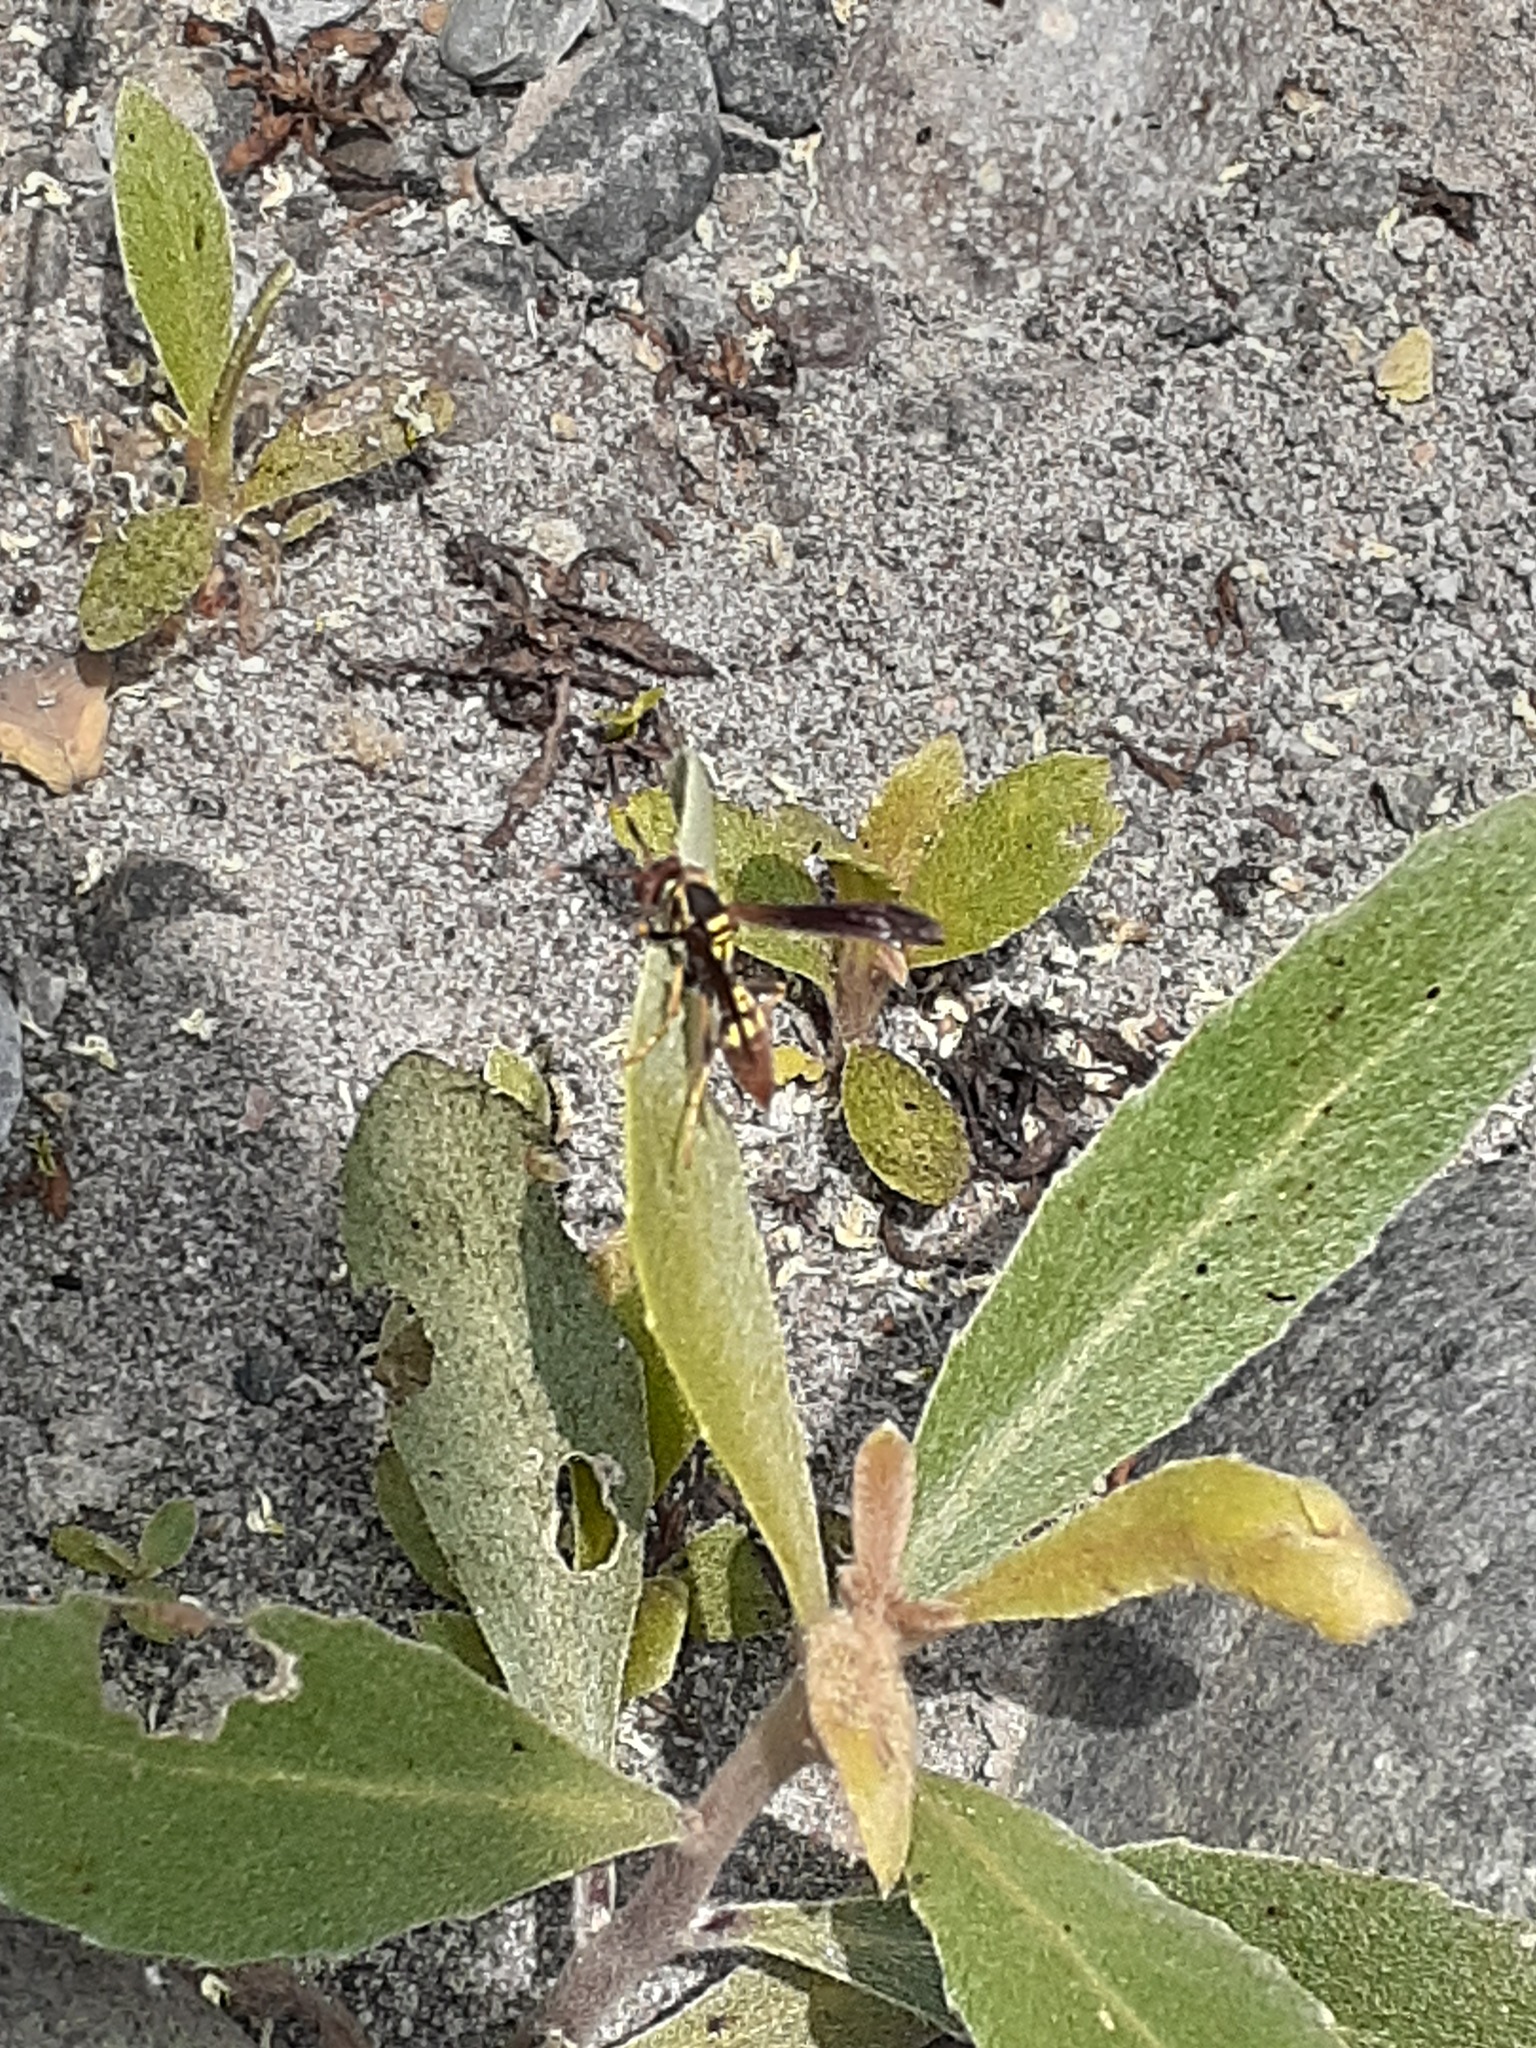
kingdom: Animalia
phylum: Arthropoda
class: Insecta
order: Hymenoptera
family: Eumenidae
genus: Polistes
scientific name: Polistes peruvianus
